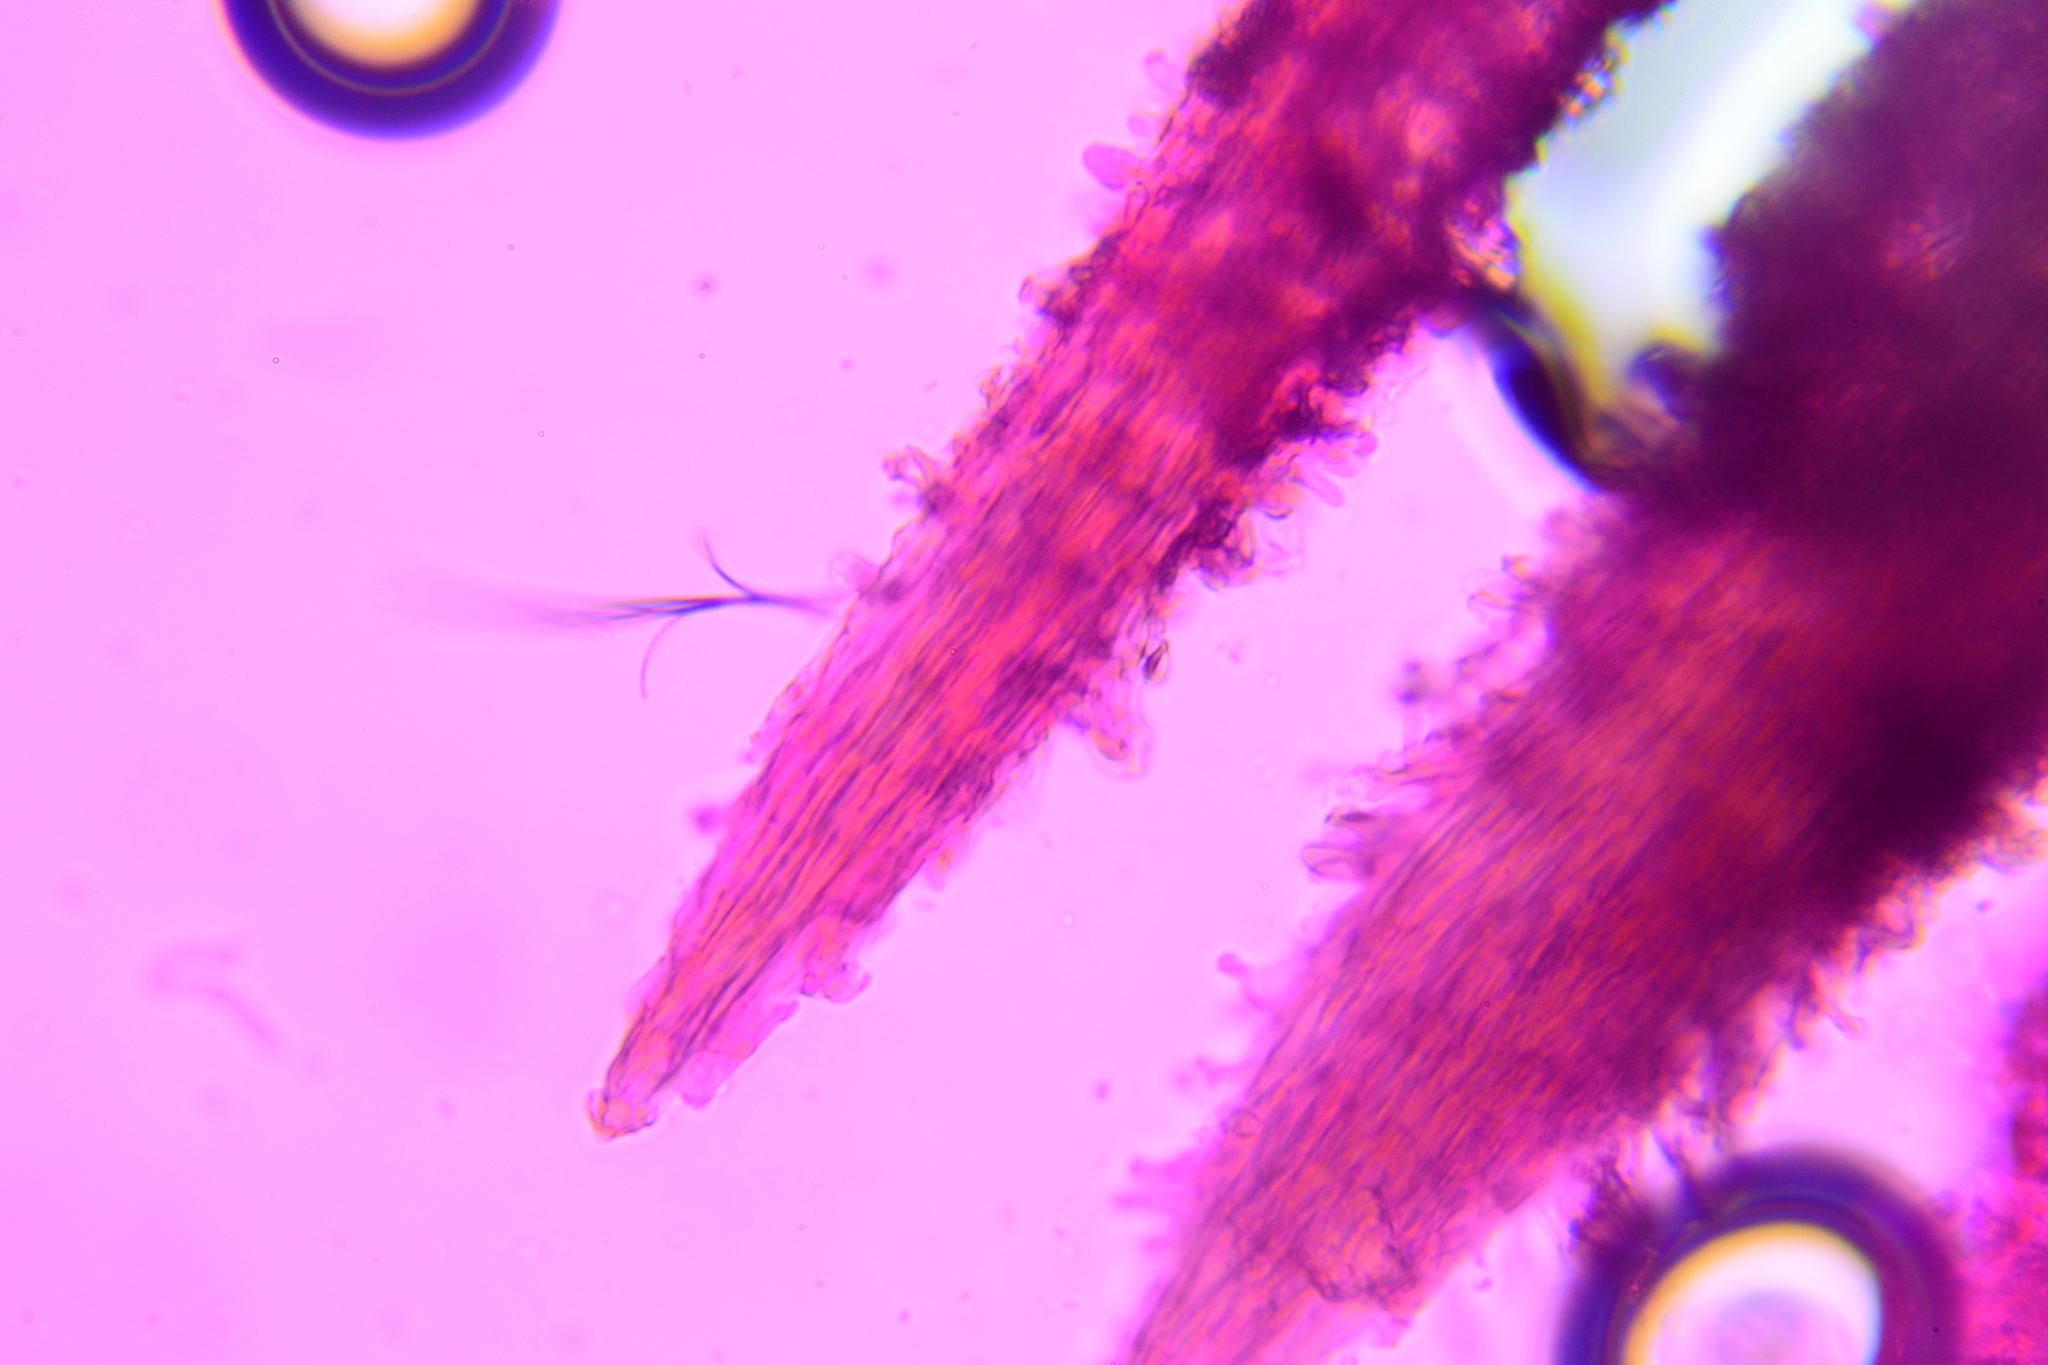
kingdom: Fungi
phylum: Basidiomycota
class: Agaricomycetes
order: Polyporales
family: Steccherinaceae
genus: Mycorrhaphium
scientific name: Mycorrhaphium adustum
